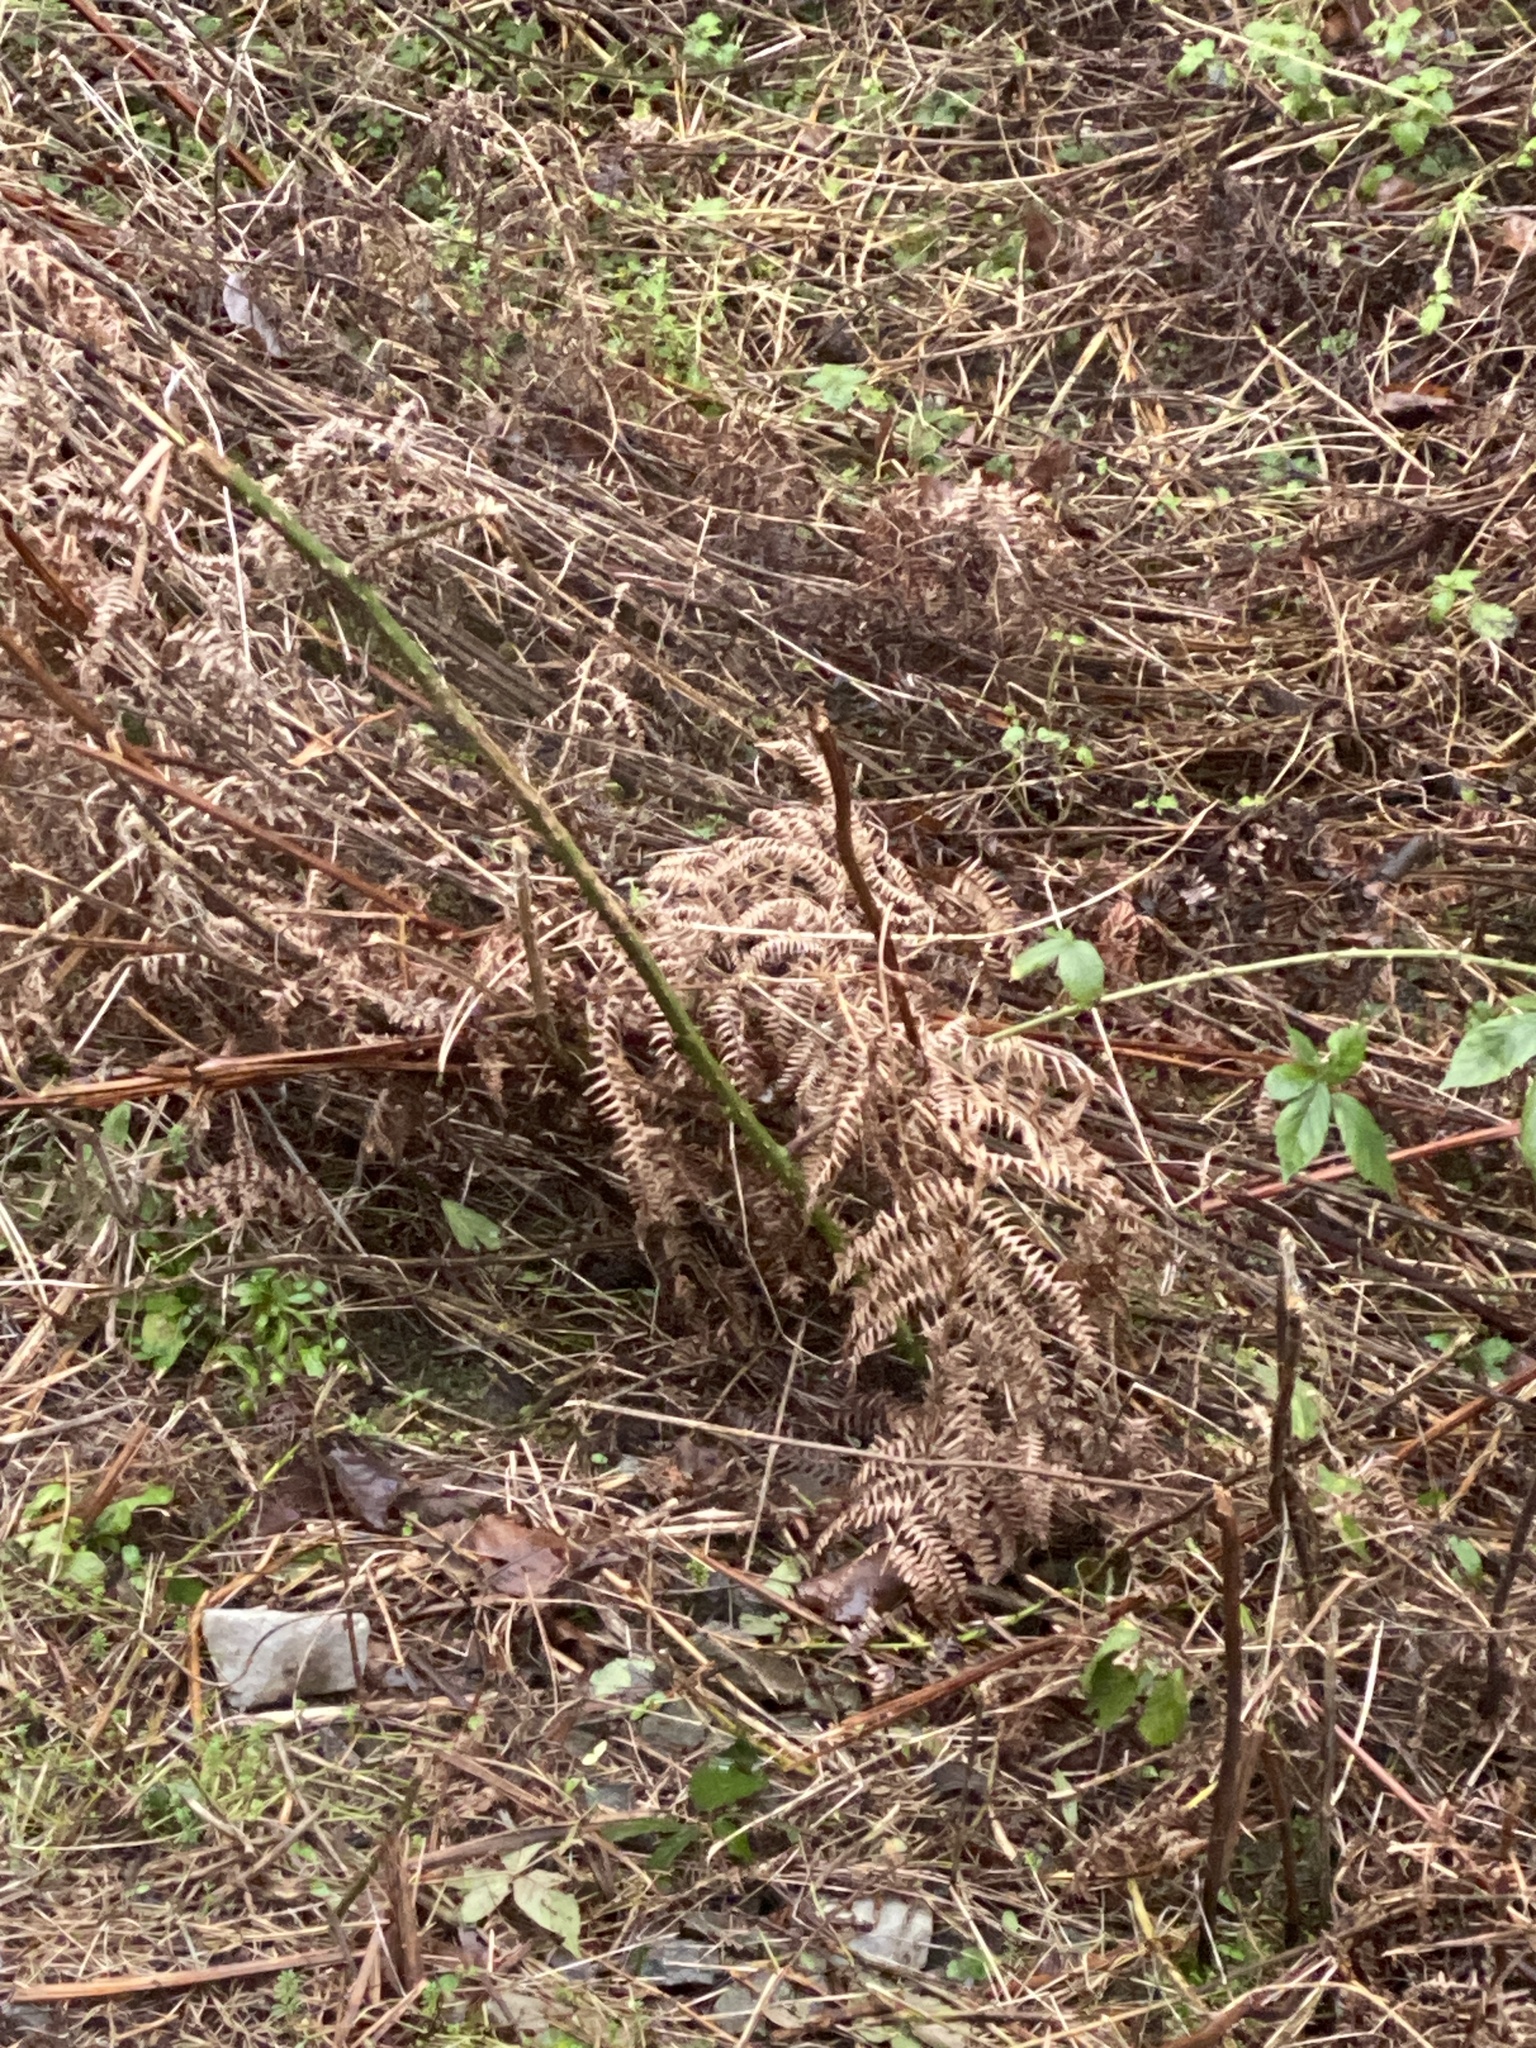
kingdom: Plantae
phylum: Tracheophyta
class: Polypodiopsida
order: Polypodiales
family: Dennstaedtiaceae
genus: Pteridium
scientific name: Pteridium aquilinum
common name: Bracken
